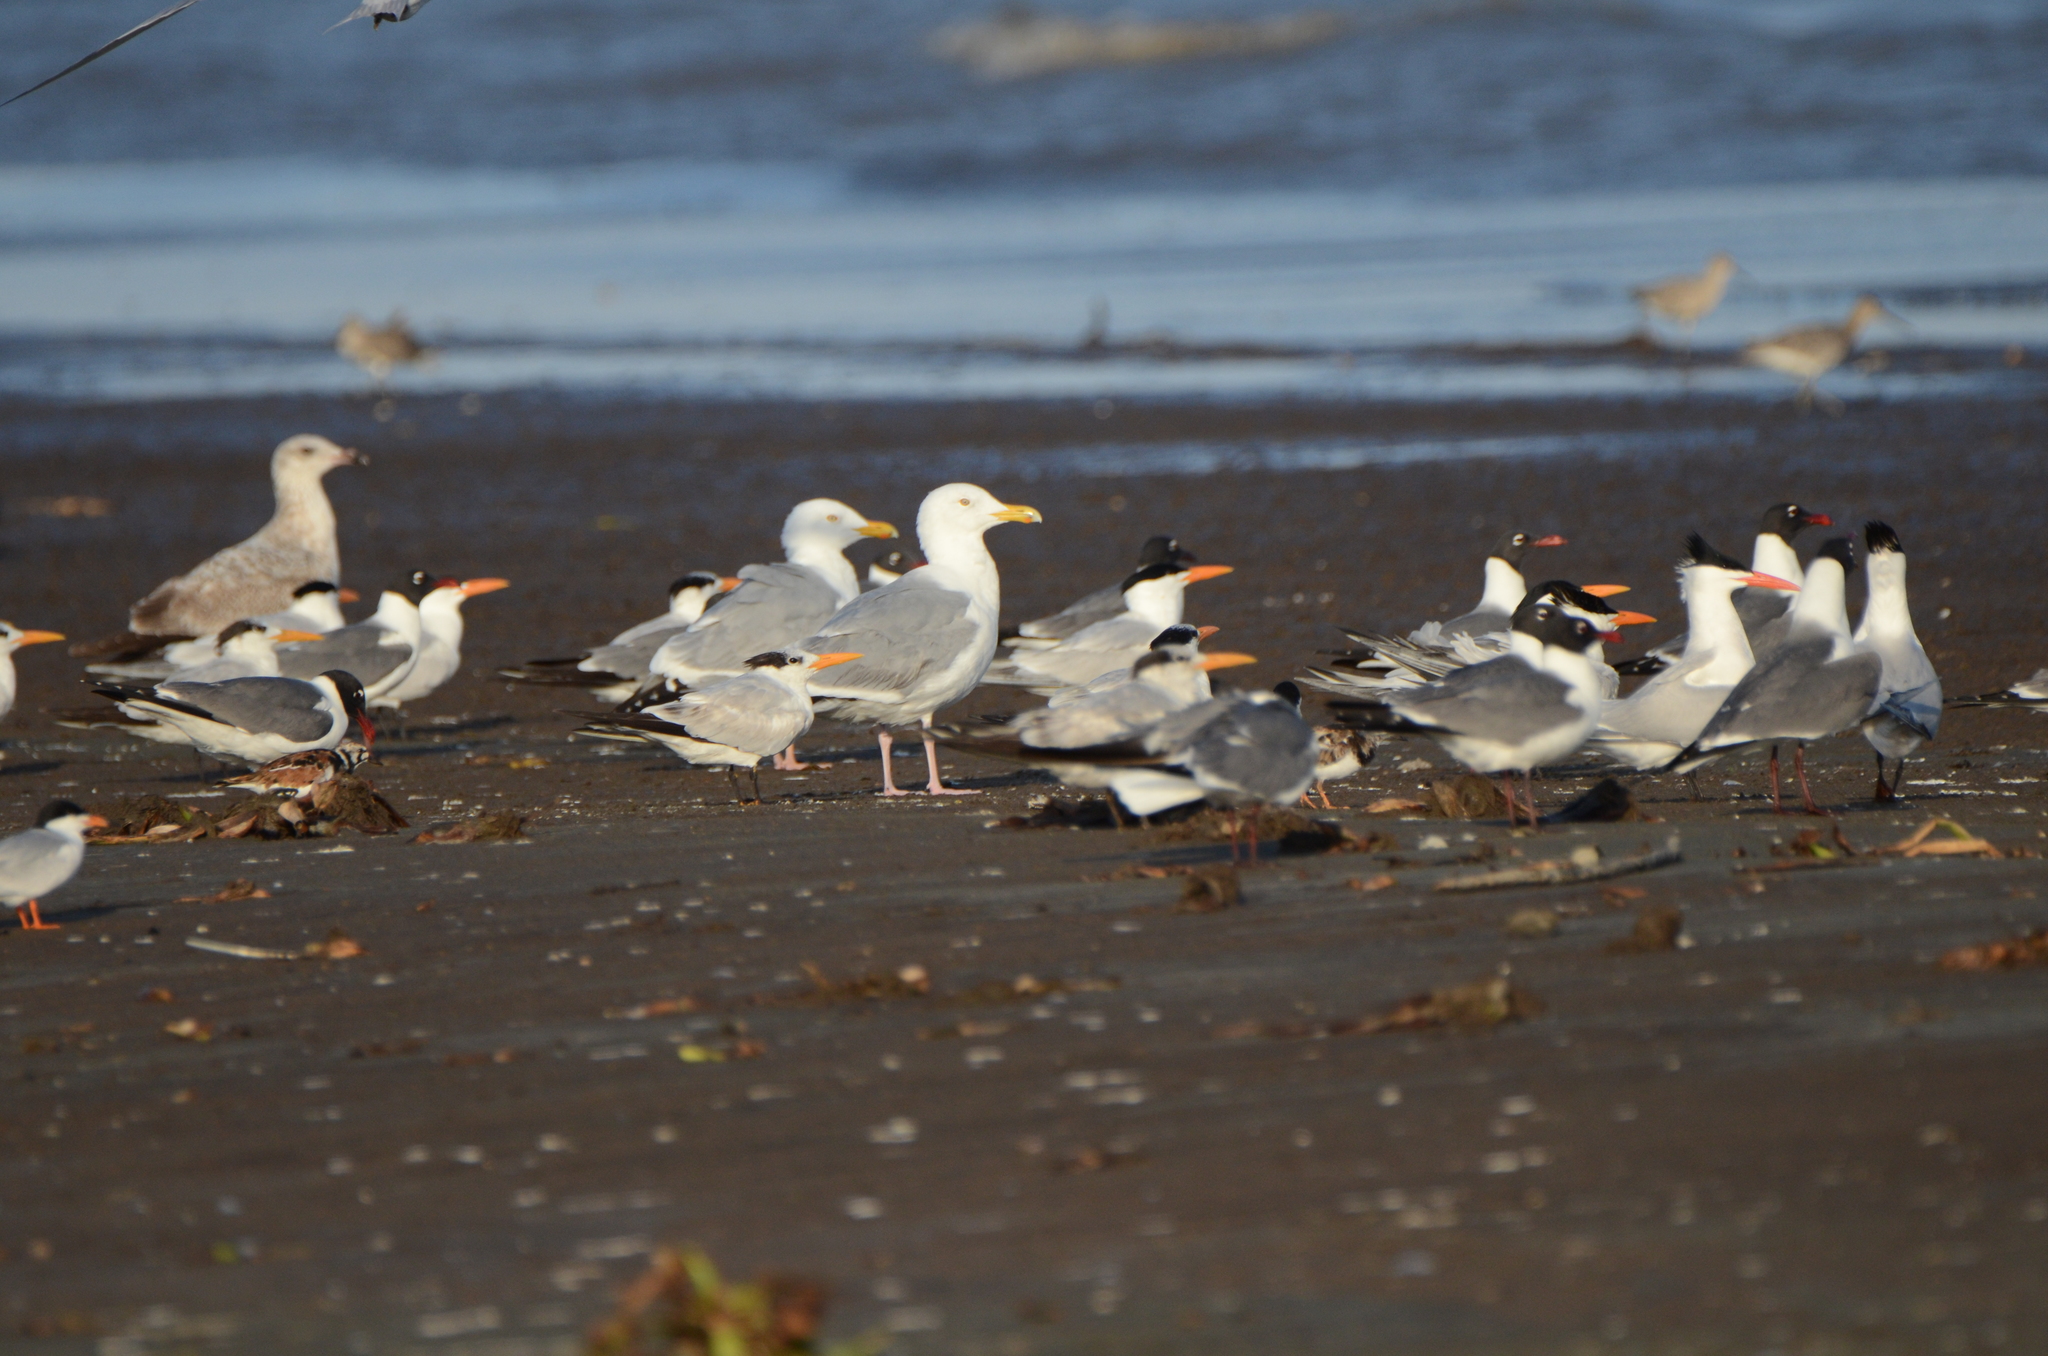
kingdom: Animalia
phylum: Chordata
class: Aves
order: Charadriiformes
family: Laridae
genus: Larus
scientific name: Larus argentatus
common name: Herring gull
